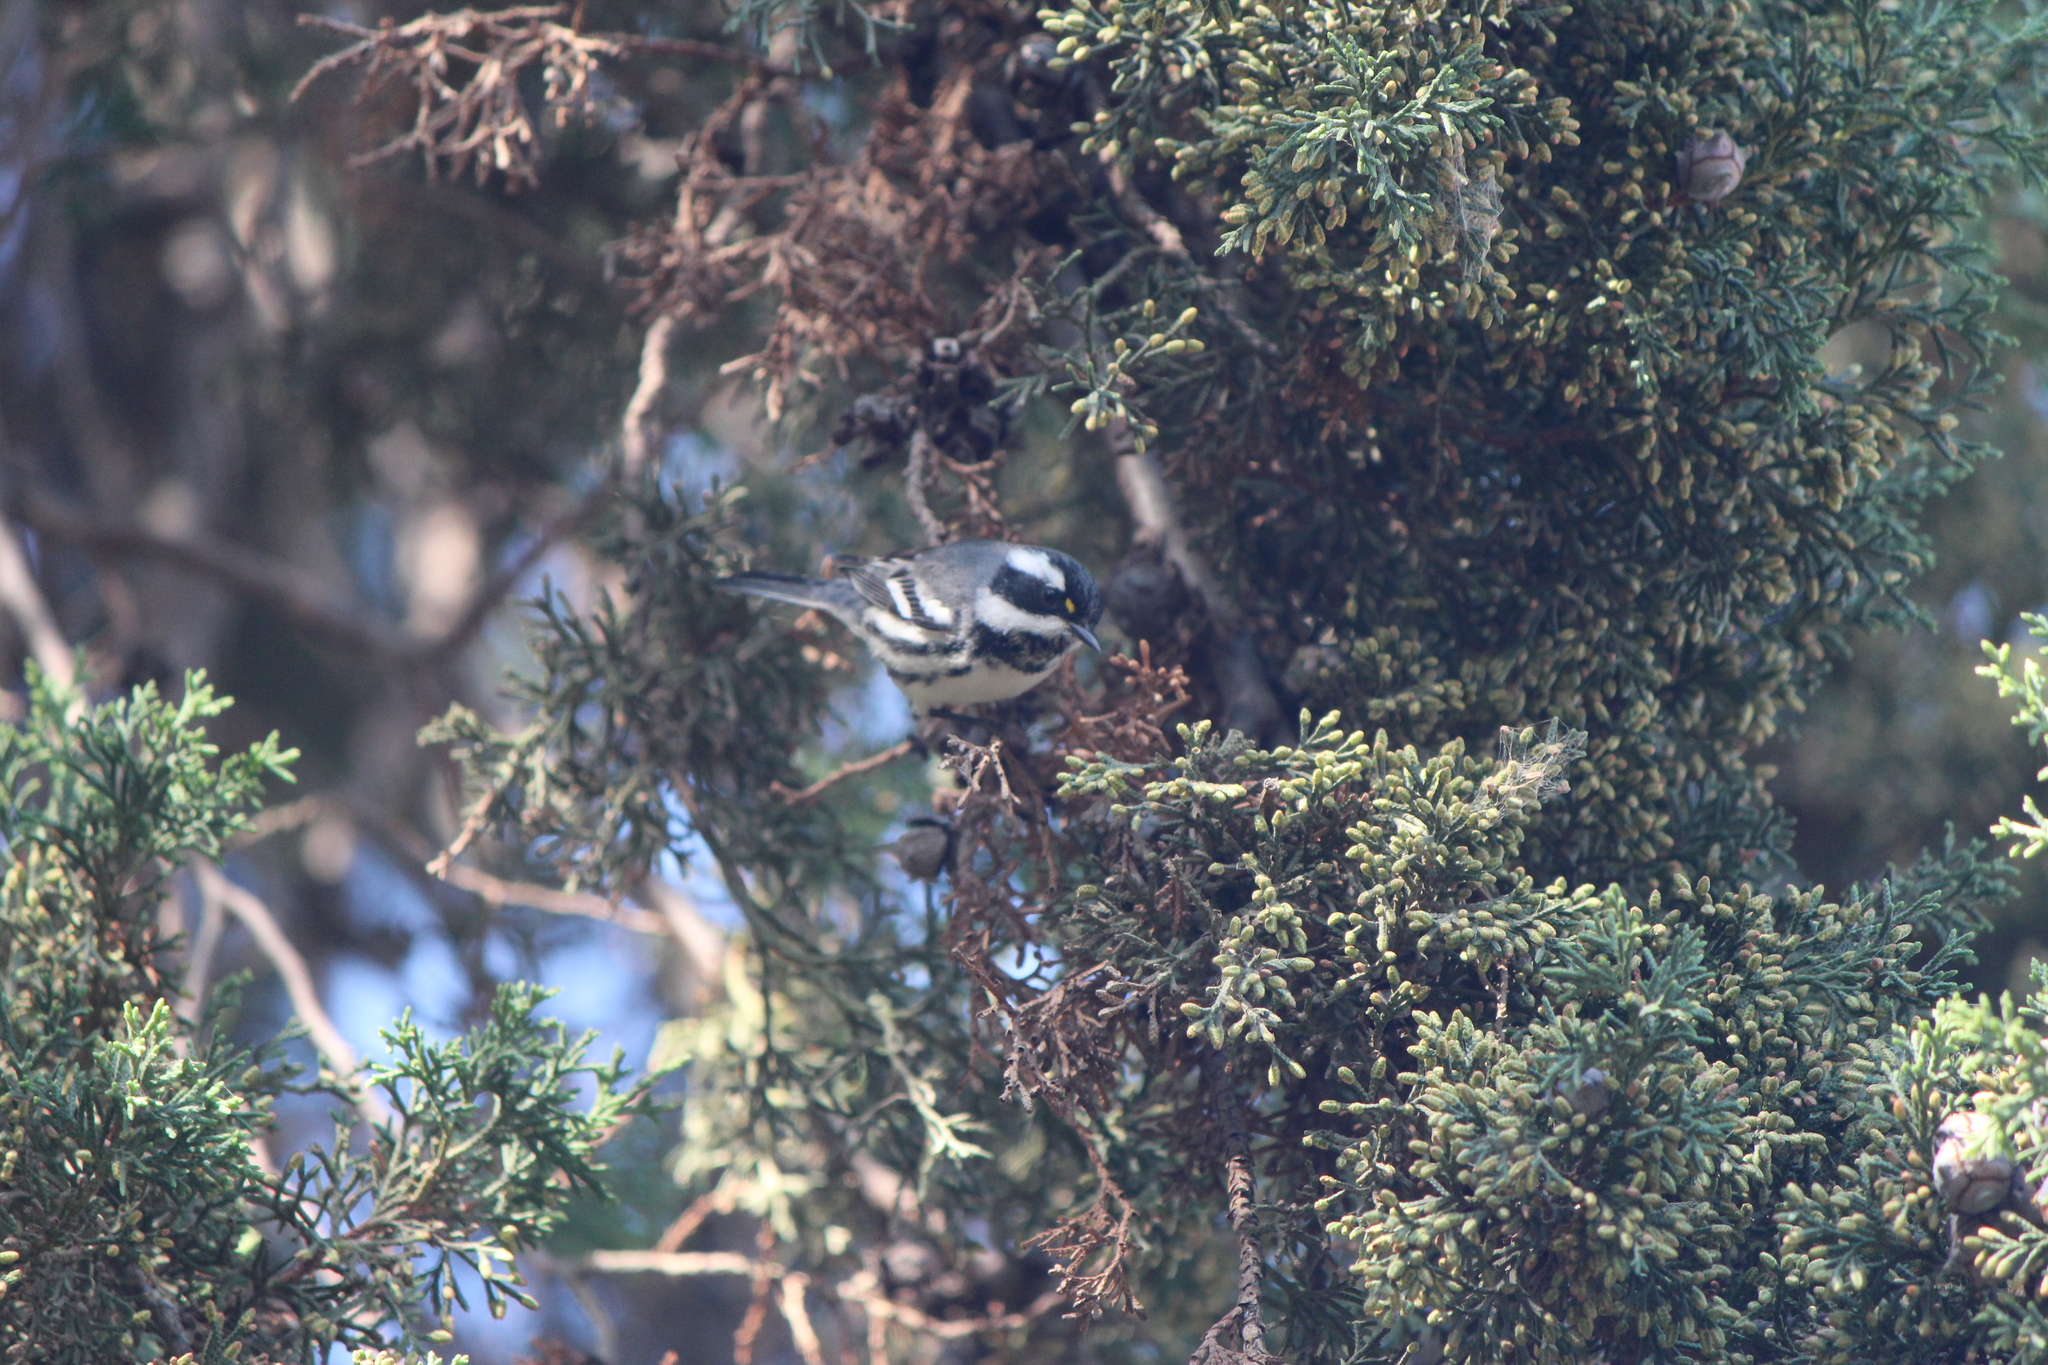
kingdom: Animalia
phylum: Chordata
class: Aves
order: Passeriformes
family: Parulidae
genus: Setophaga
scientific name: Setophaga nigrescens
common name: Black-throated gray warbler
